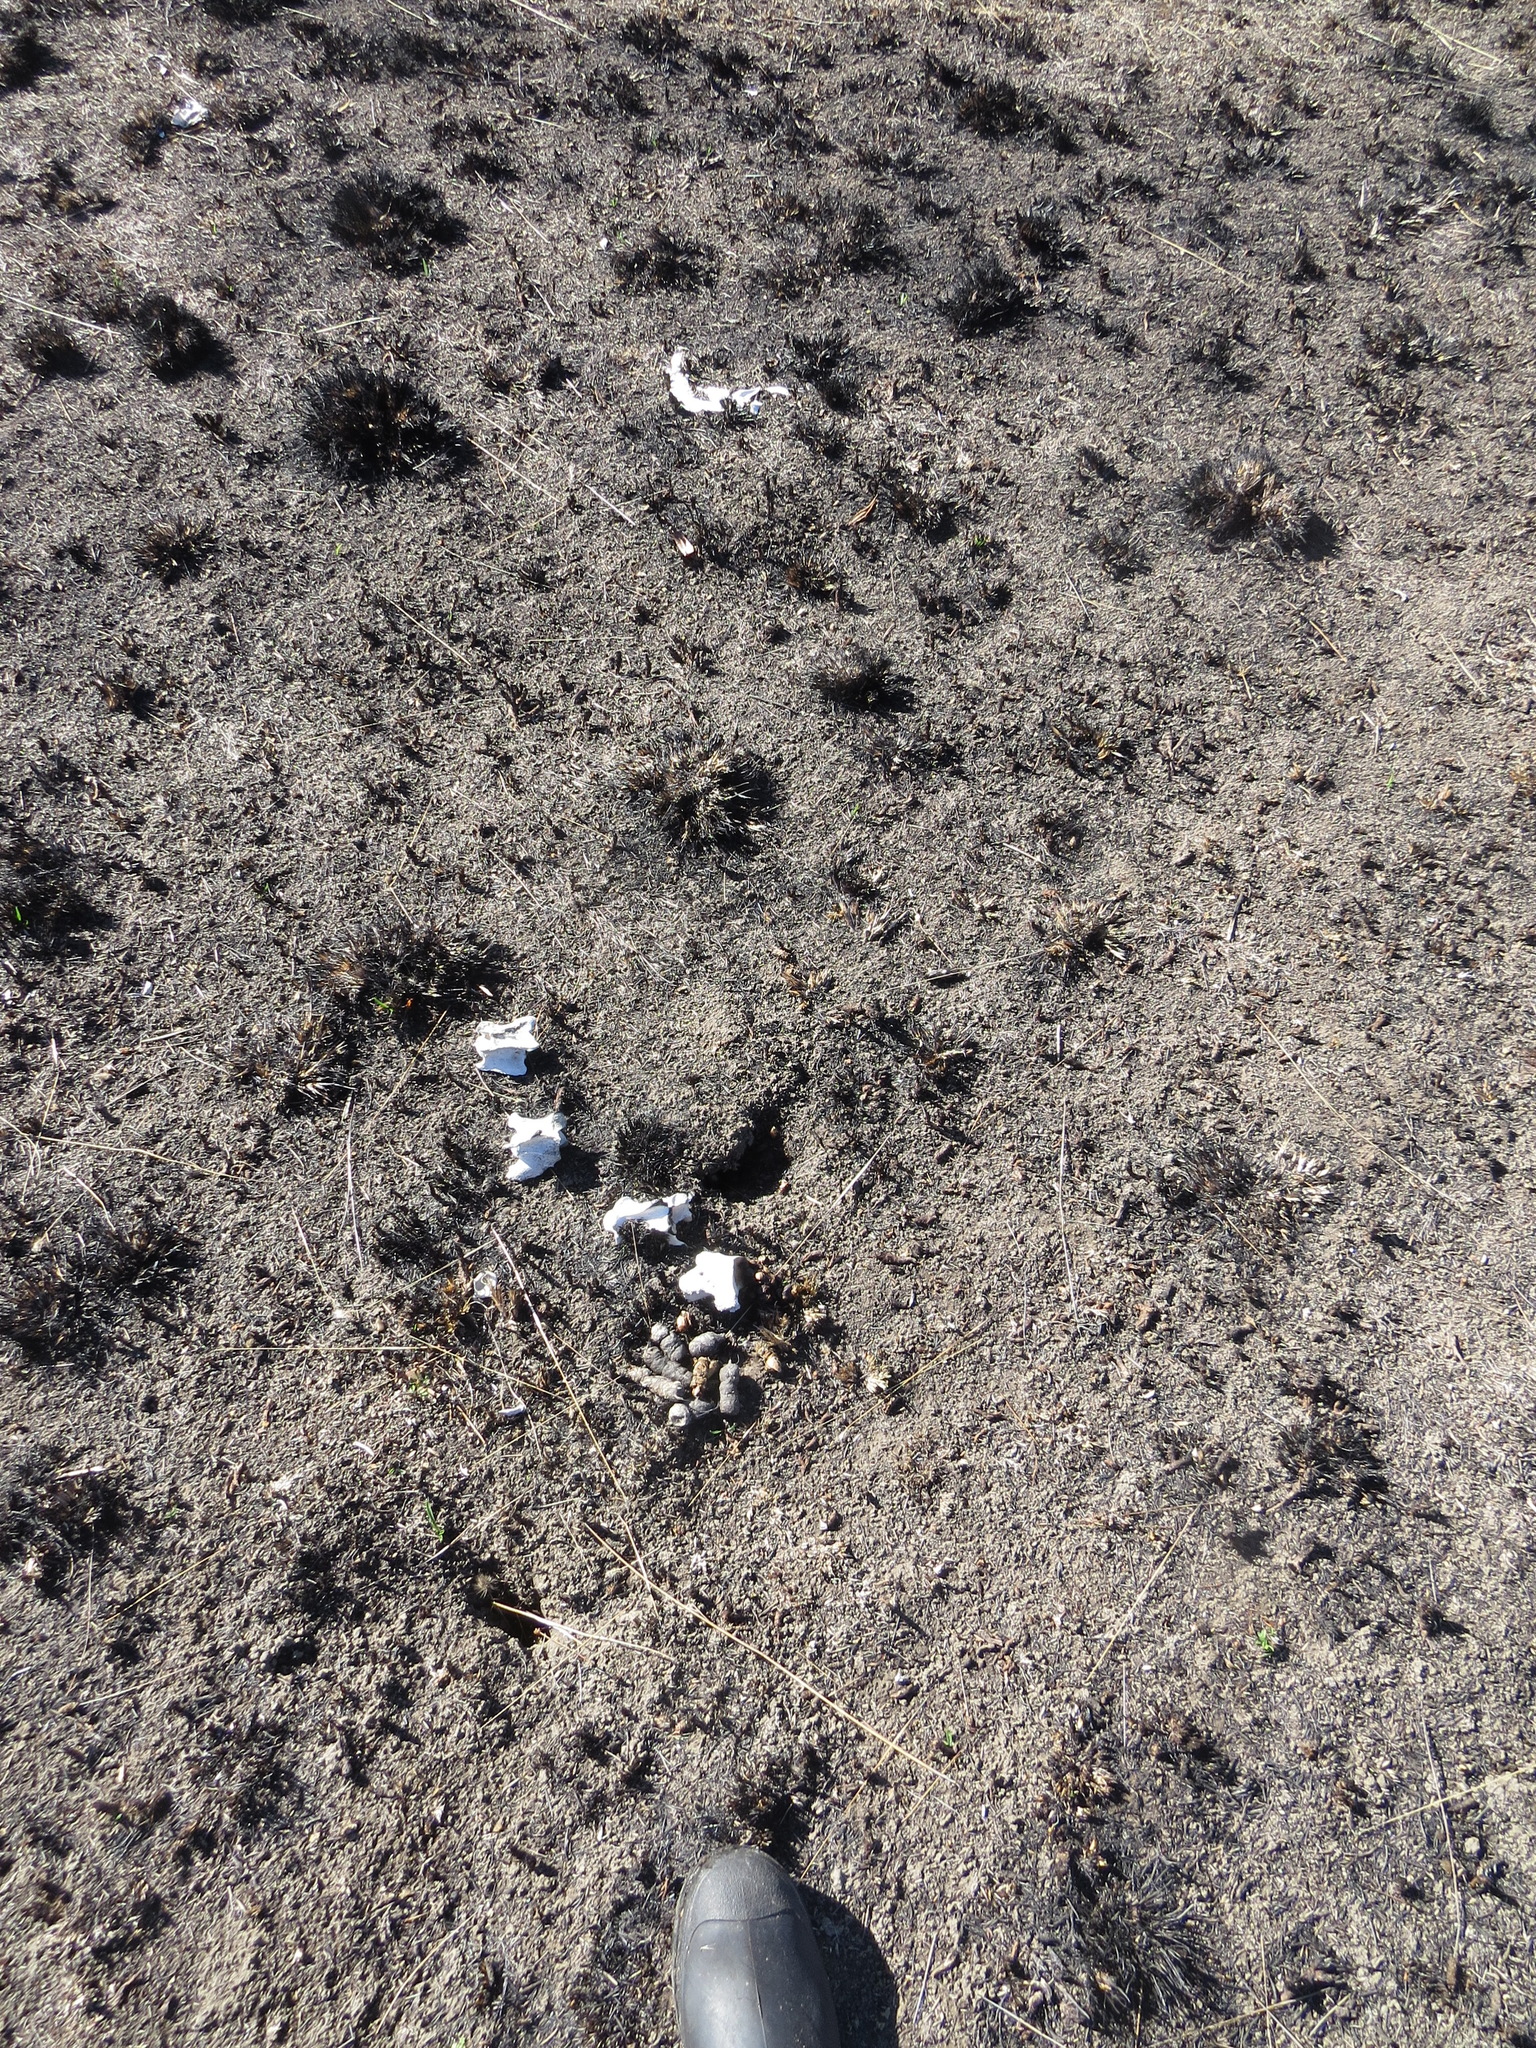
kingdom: Animalia
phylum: Chordata
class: Mammalia
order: Artiodactyla
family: Cervidae
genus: Odocoileus
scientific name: Odocoileus hemionus
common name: Mule deer
